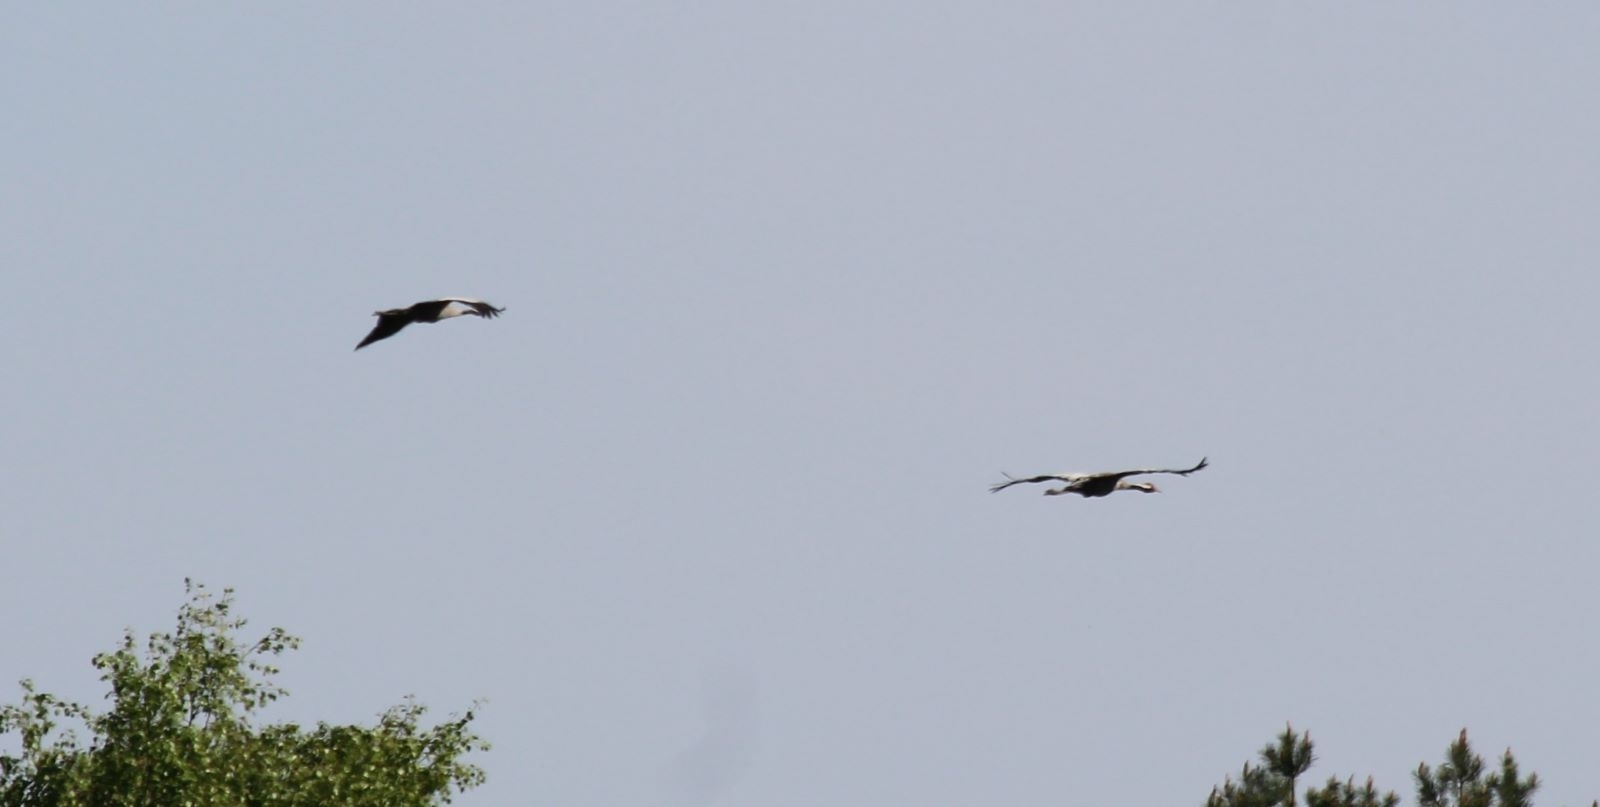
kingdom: Animalia
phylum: Chordata
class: Aves
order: Gruiformes
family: Gruidae
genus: Grus
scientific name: Grus grus
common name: Common crane
